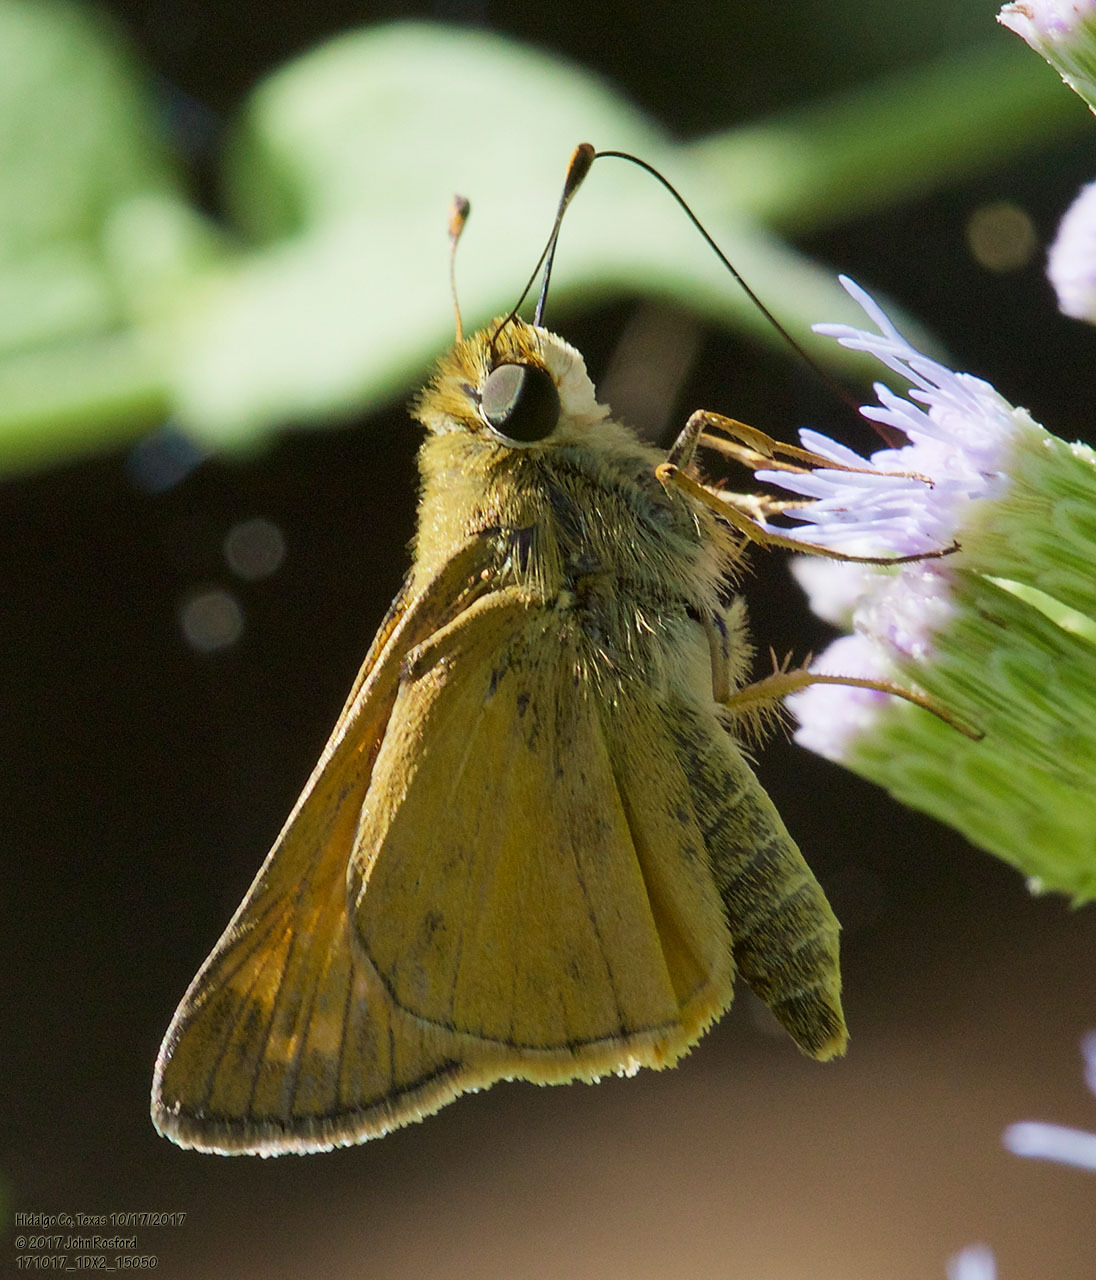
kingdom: Animalia
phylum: Arthropoda
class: Insecta
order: Lepidoptera
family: Hesperiidae
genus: Atalopedes
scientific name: Atalopedes
